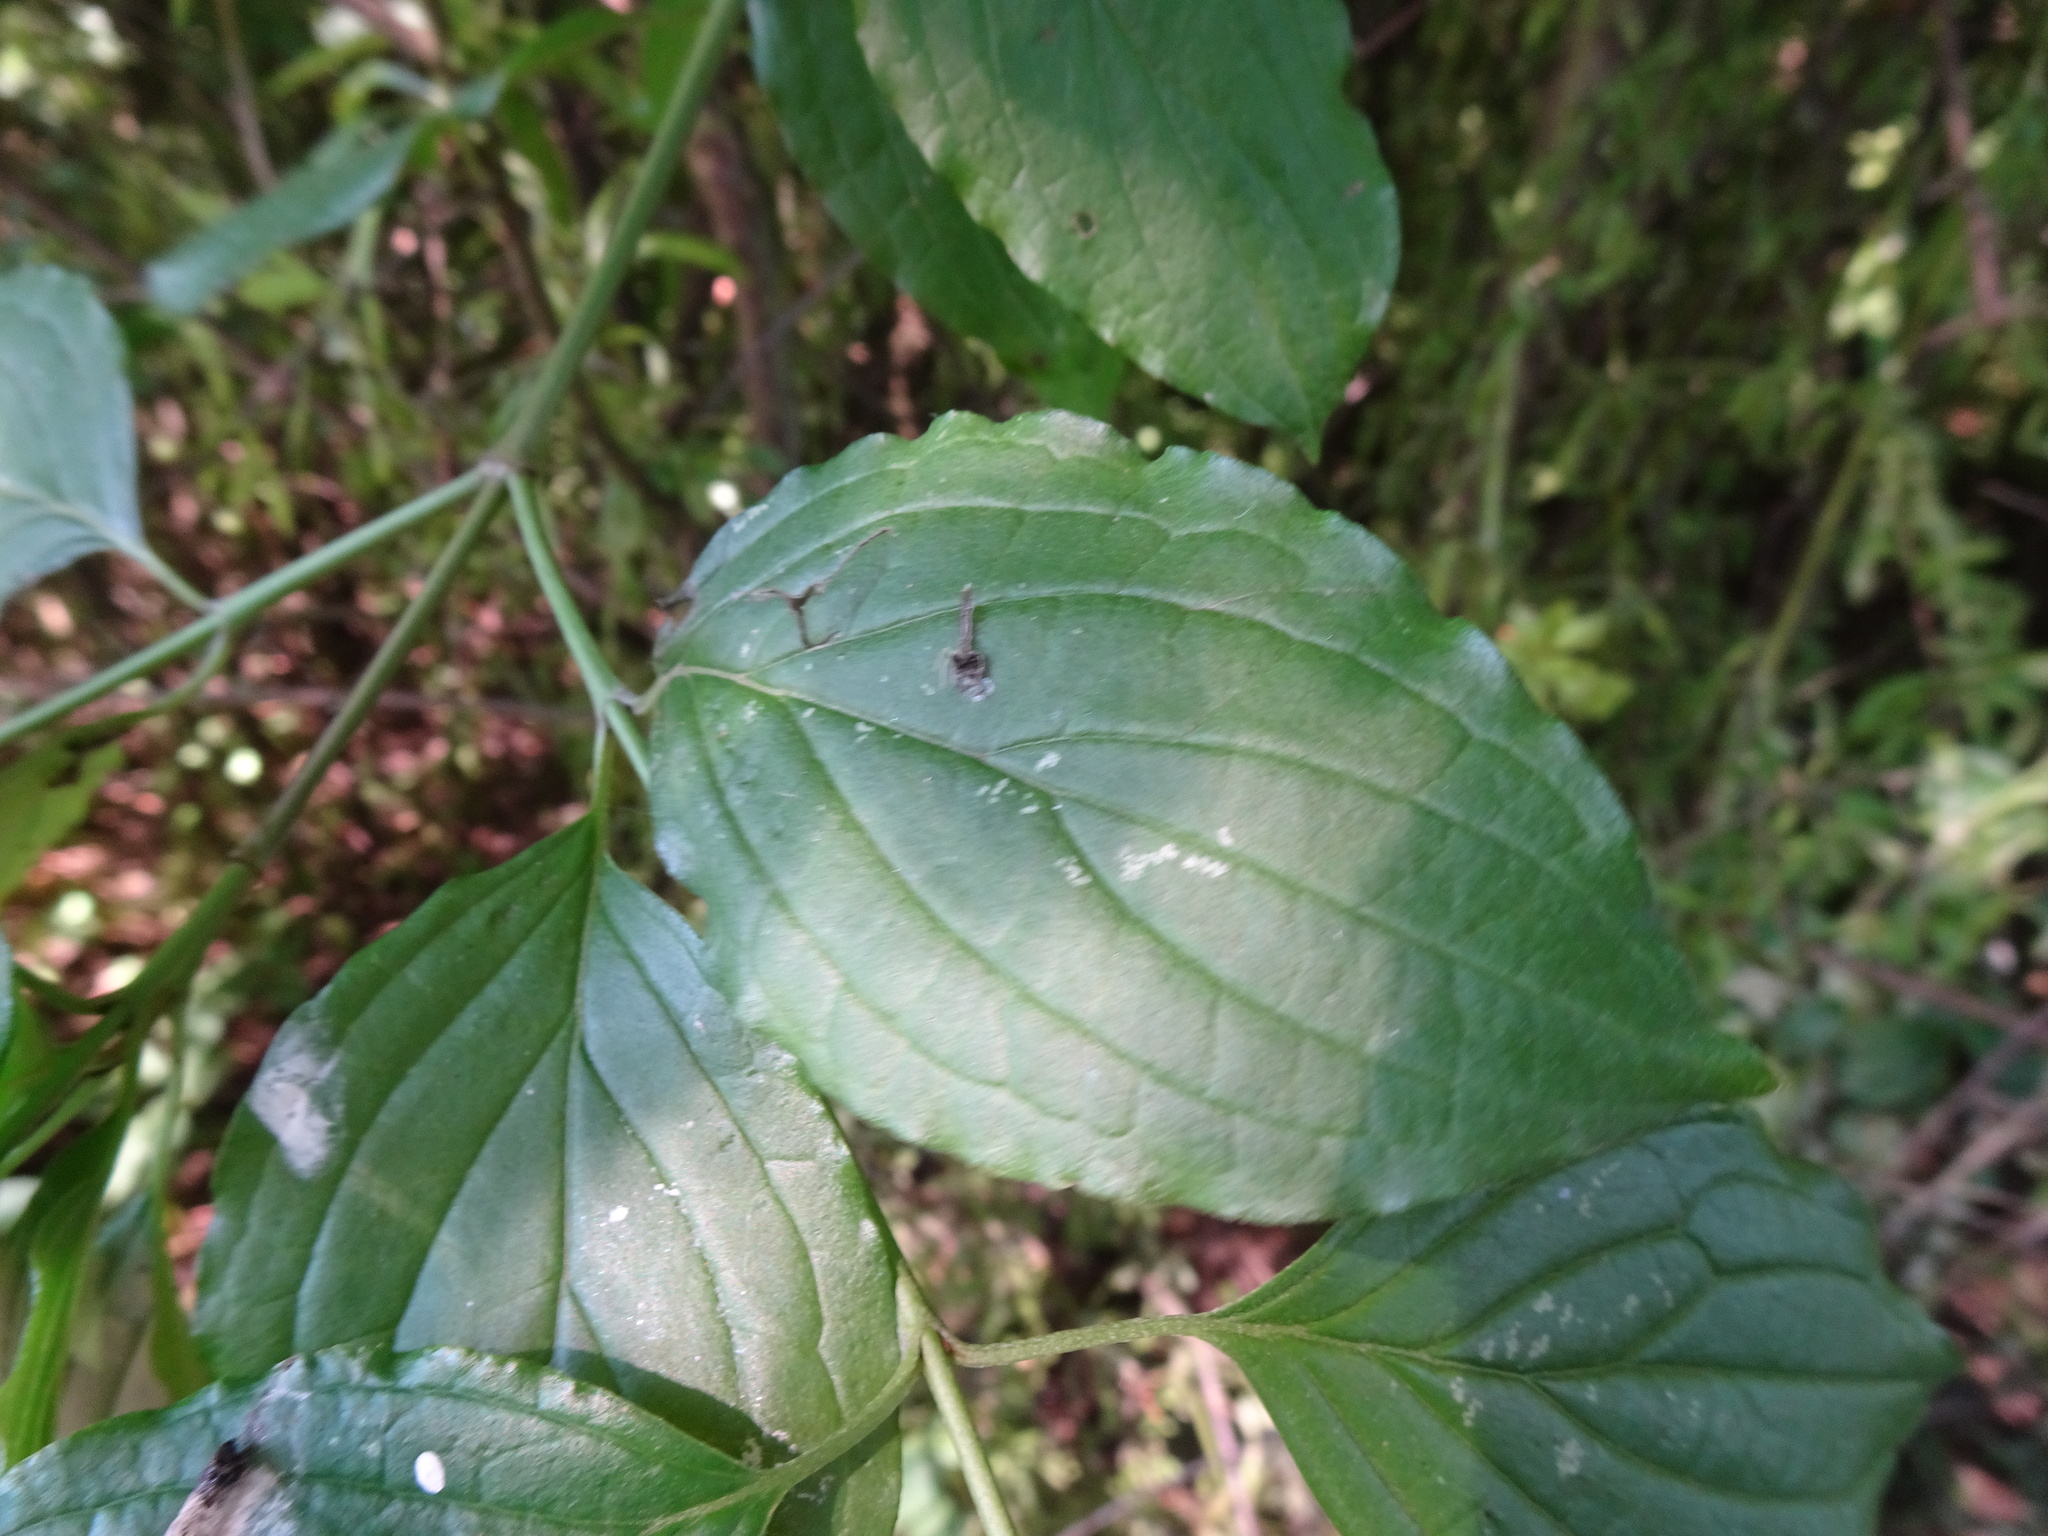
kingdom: Plantae
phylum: Tracheophyta
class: Magnoliopsida
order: Cornales
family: Cornaceae
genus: Cornus
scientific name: Cornus sanguinea
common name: Dogwood
